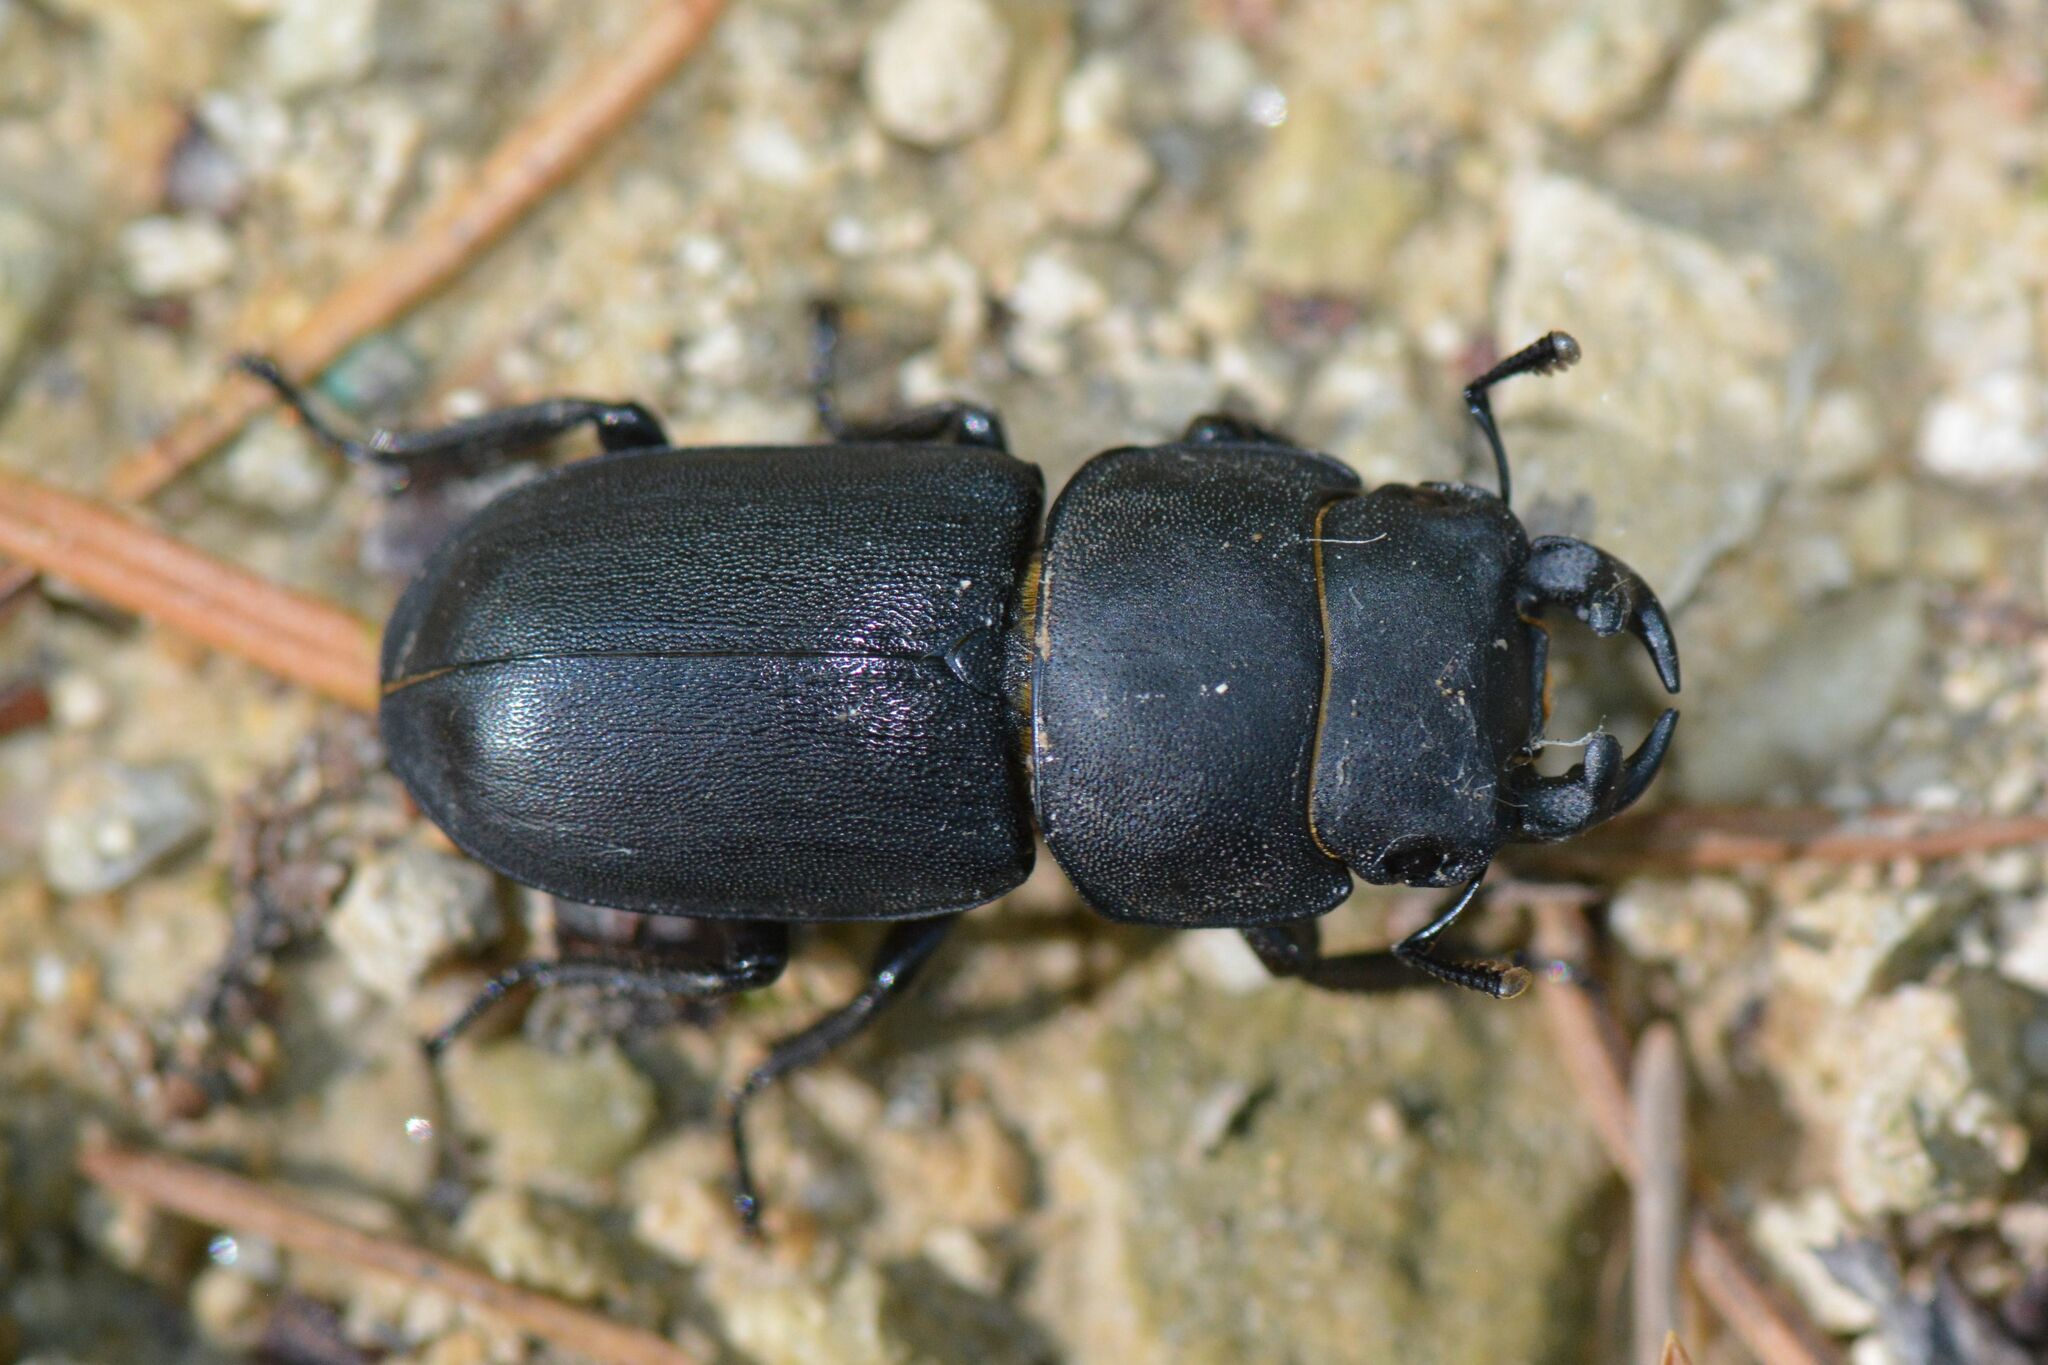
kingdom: Animalia
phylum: Arthropoda
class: Insecta
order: Coleoptera
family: Lucanidae
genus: Dorcus
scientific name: Dorcus parallelipipedus
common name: Lesser stag beetle
